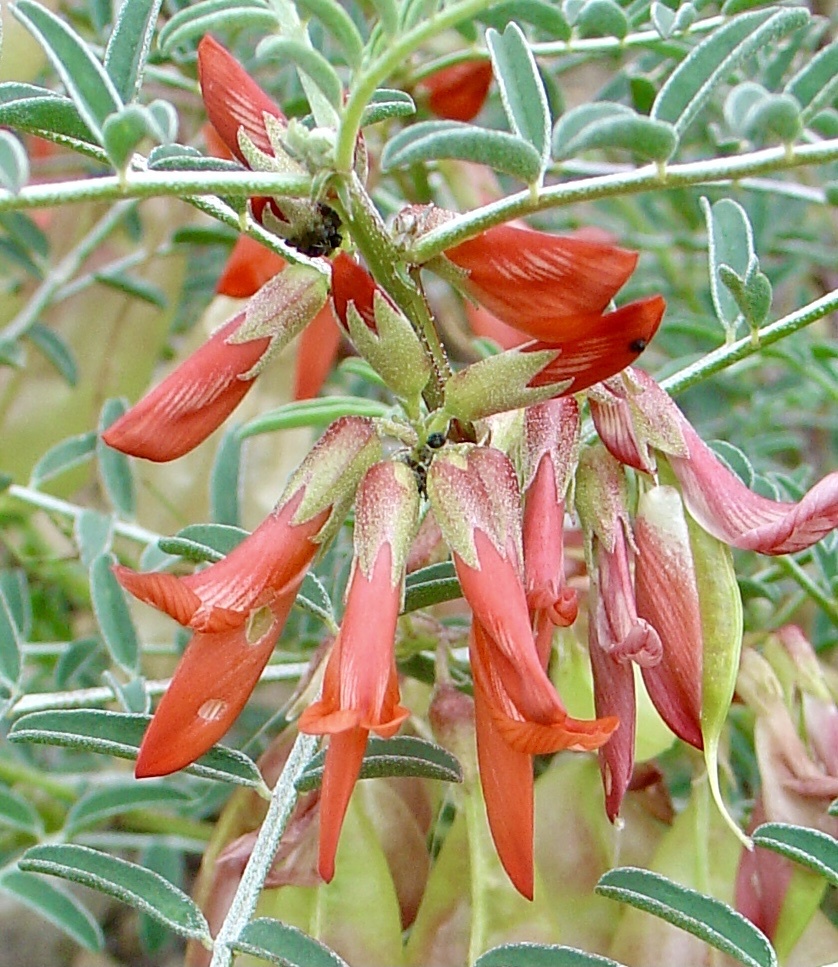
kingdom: Plantae
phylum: Tracheophyta
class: Magnoliopsida
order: Fabales
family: Fabaceae
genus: Lessertia
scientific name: Lessertia frutescens
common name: Balloon-pea
